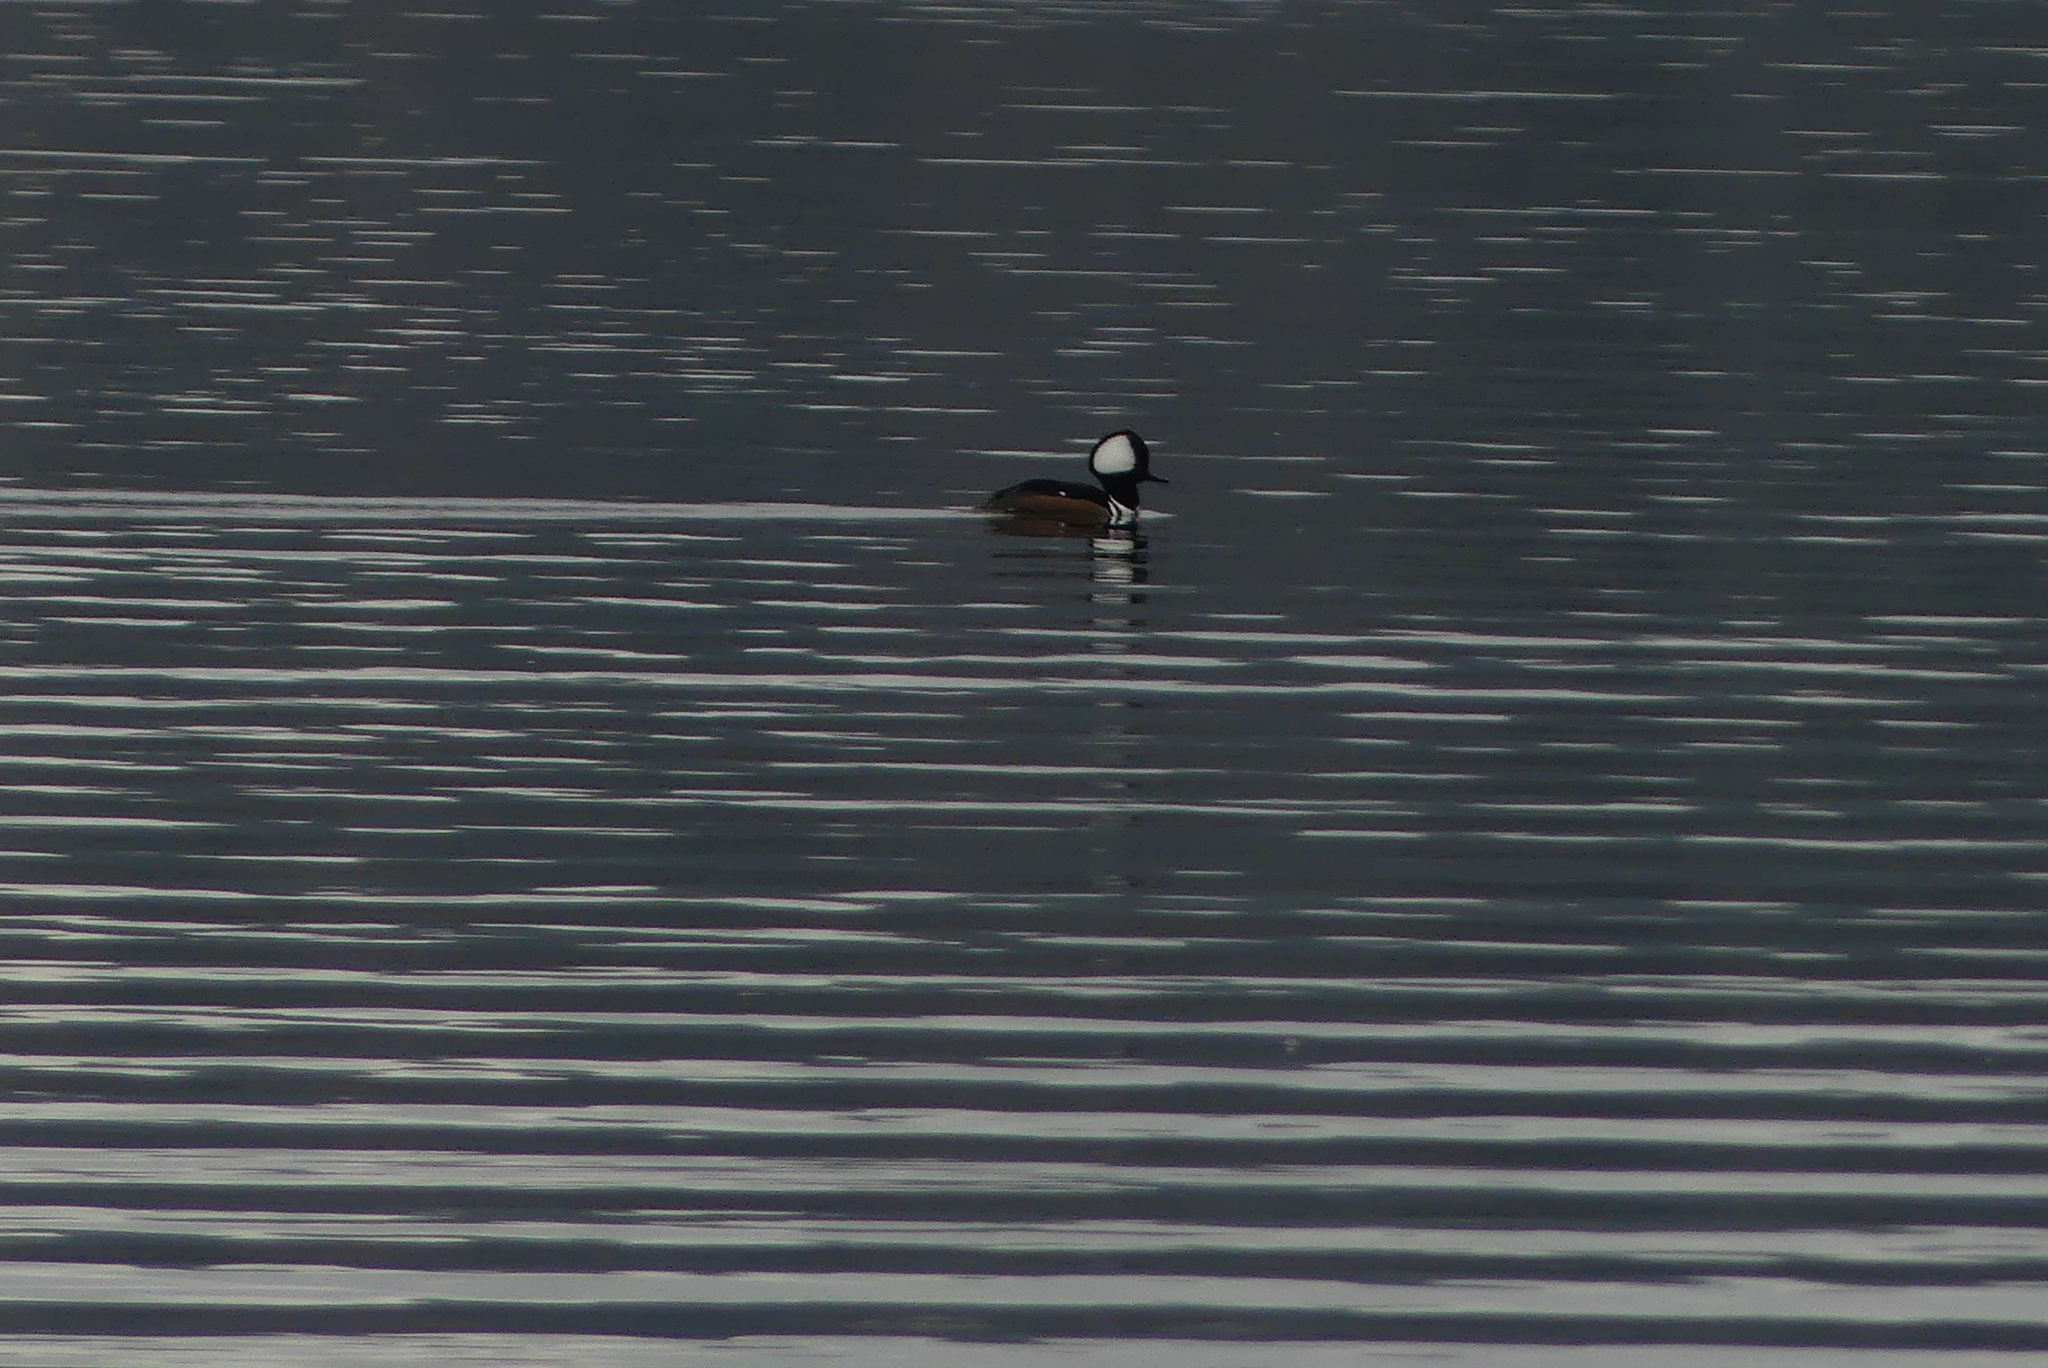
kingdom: Animalia
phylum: Chordata
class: Aves
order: Anseriformes
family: Anatidae
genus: Lophodytes
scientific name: Lophodytes cucullatus
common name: Hooded merganser
